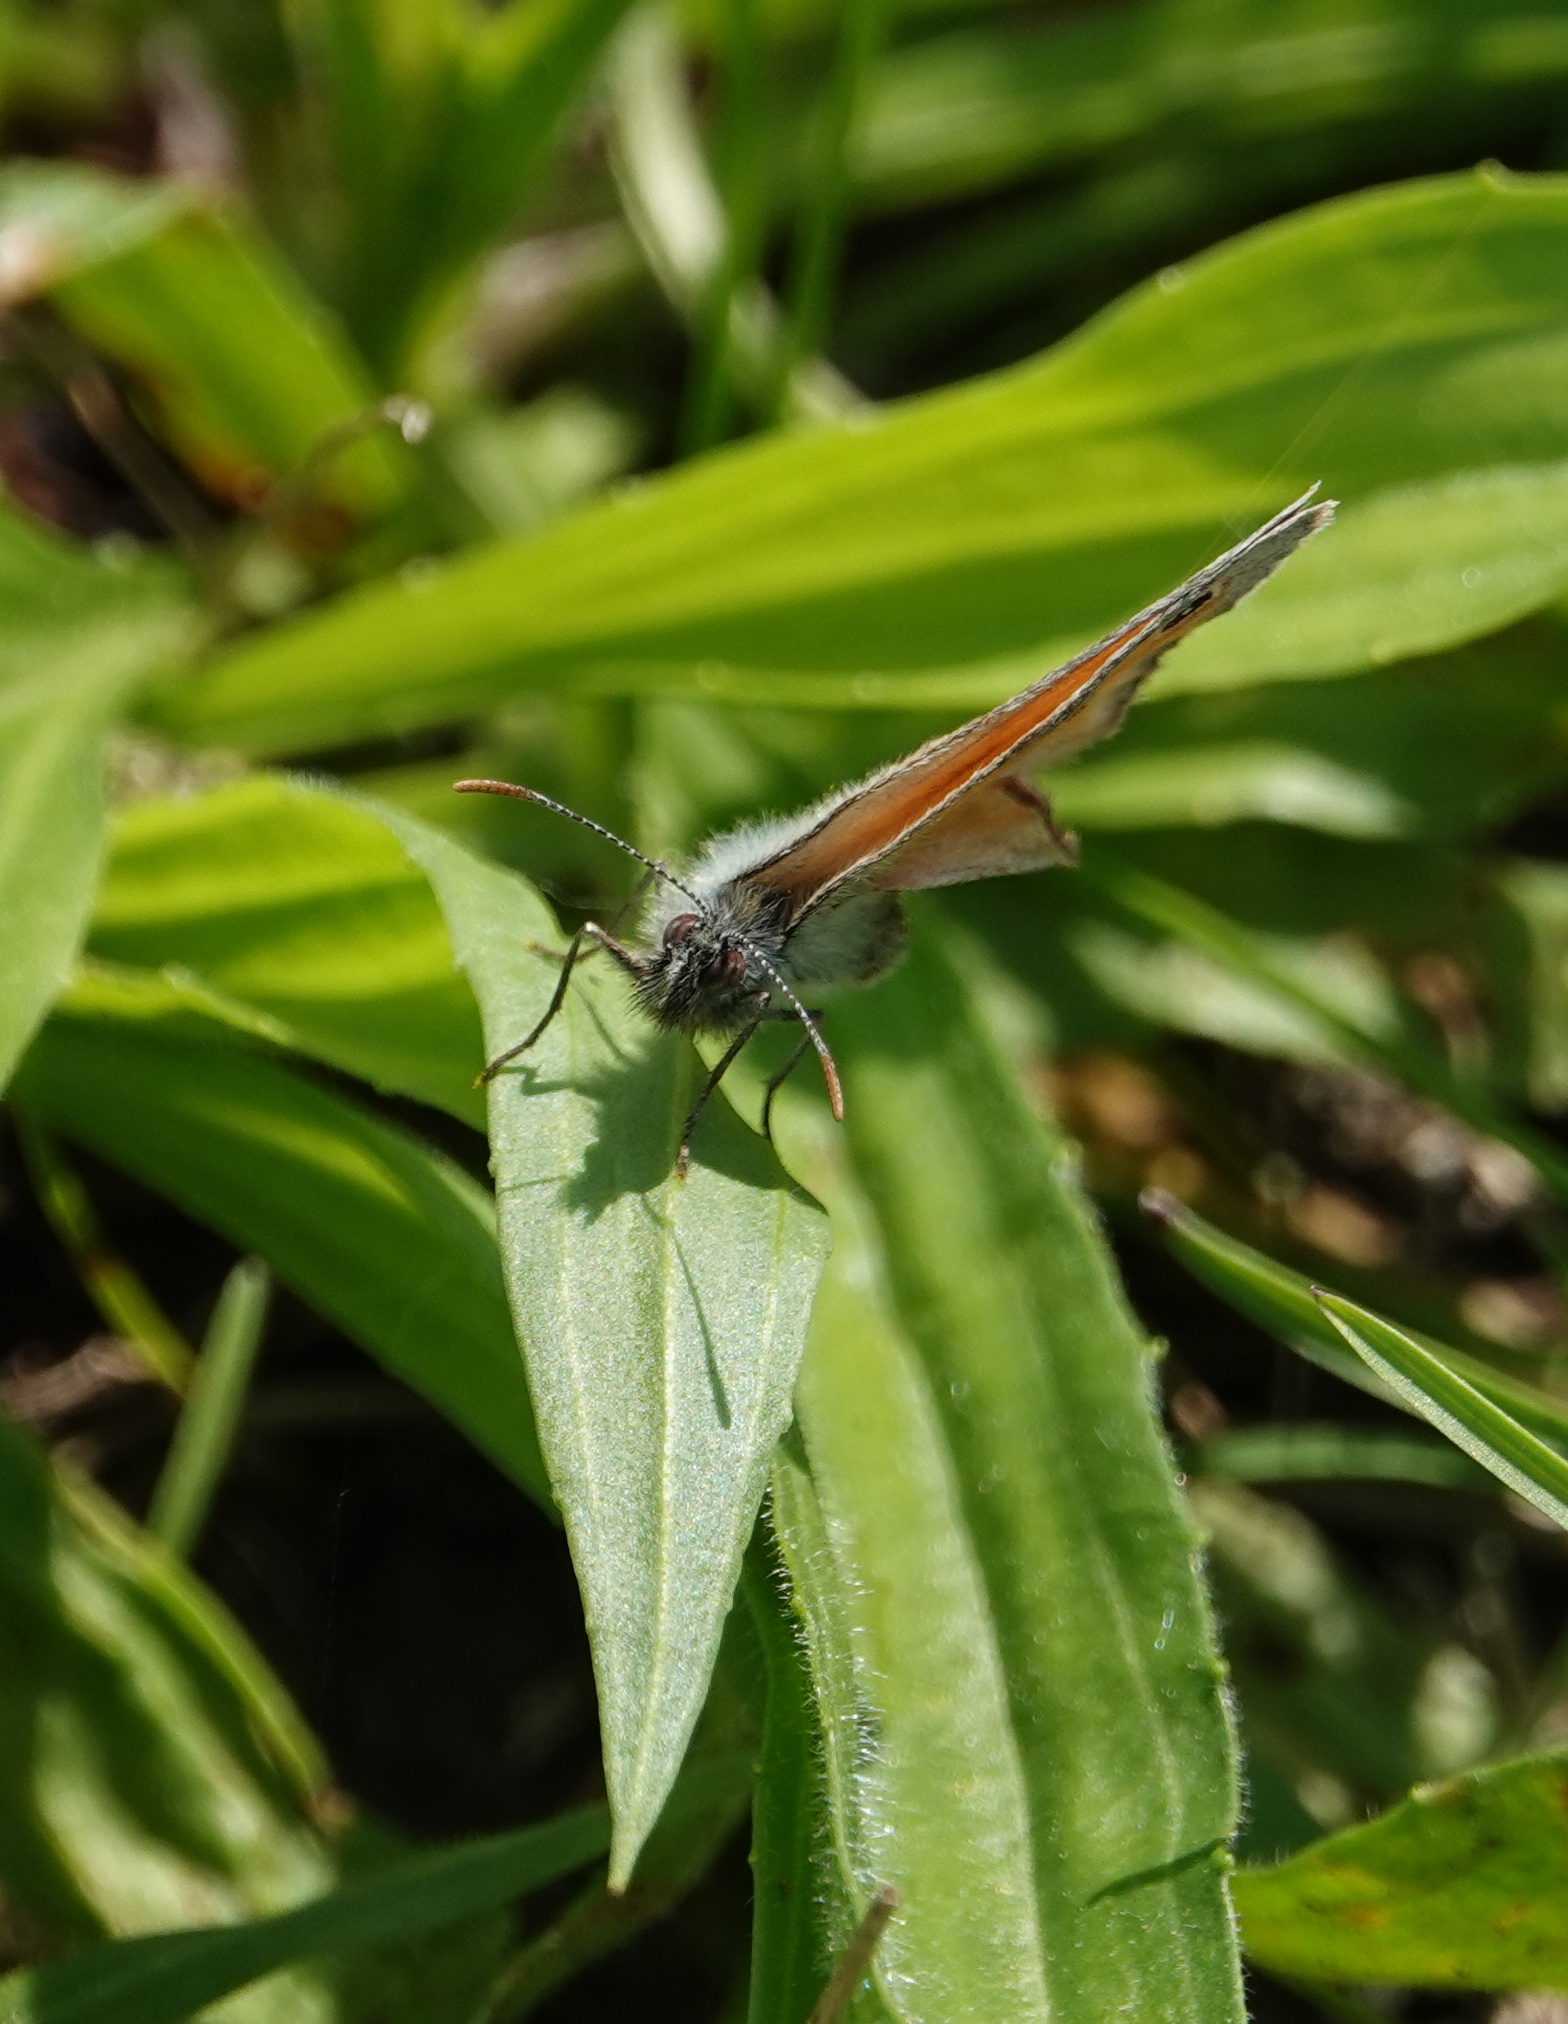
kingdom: Animalia
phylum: Arthropoda
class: Insecta
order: Lepidoptera
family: Nymphalidae
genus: Coenonympha
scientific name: Coenonympha pamphilus
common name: Small heath
